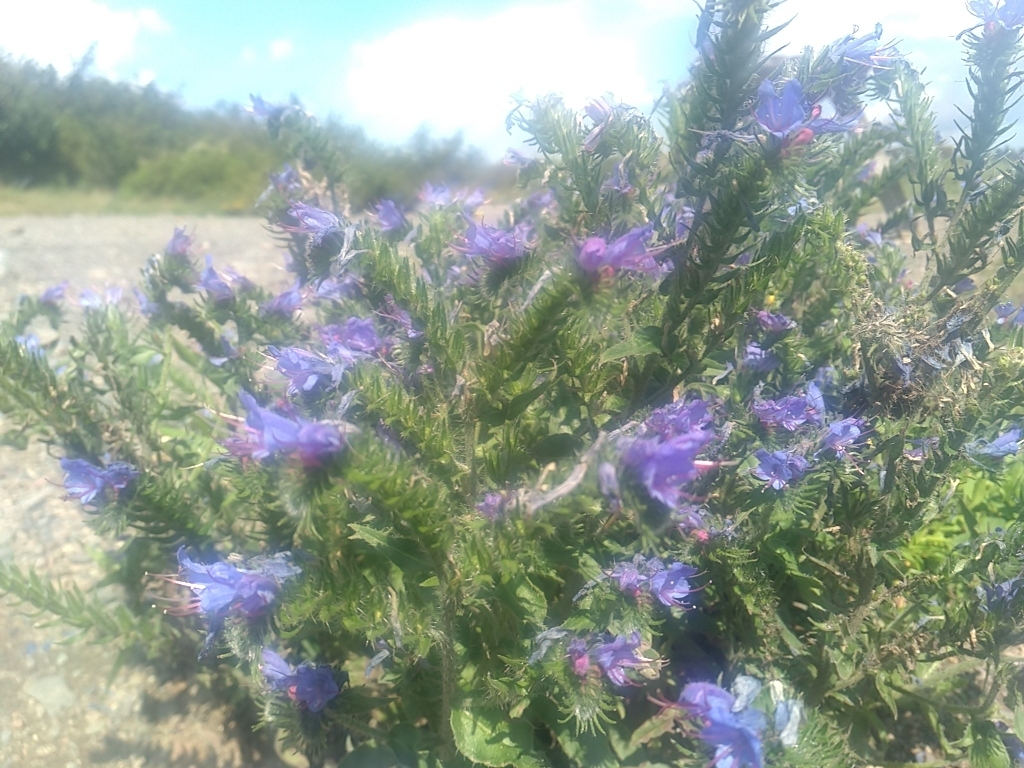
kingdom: Plantae
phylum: Tracheophyta
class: Magnoliopsida
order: Boraginales
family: Boraginaceae
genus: Echium
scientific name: Echium vulgare
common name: Common viper's bugloss
